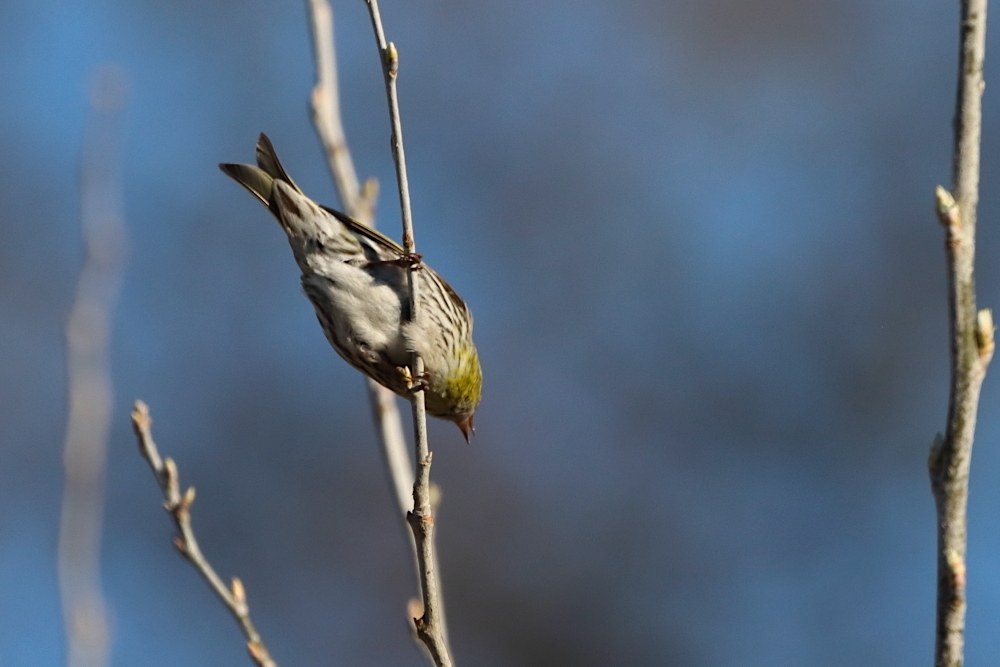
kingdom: Animalia
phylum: Chordata
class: Aves
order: Passeriformes
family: Fringillidae
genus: Spinus
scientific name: Spinus spinus
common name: Eurasian siskin
